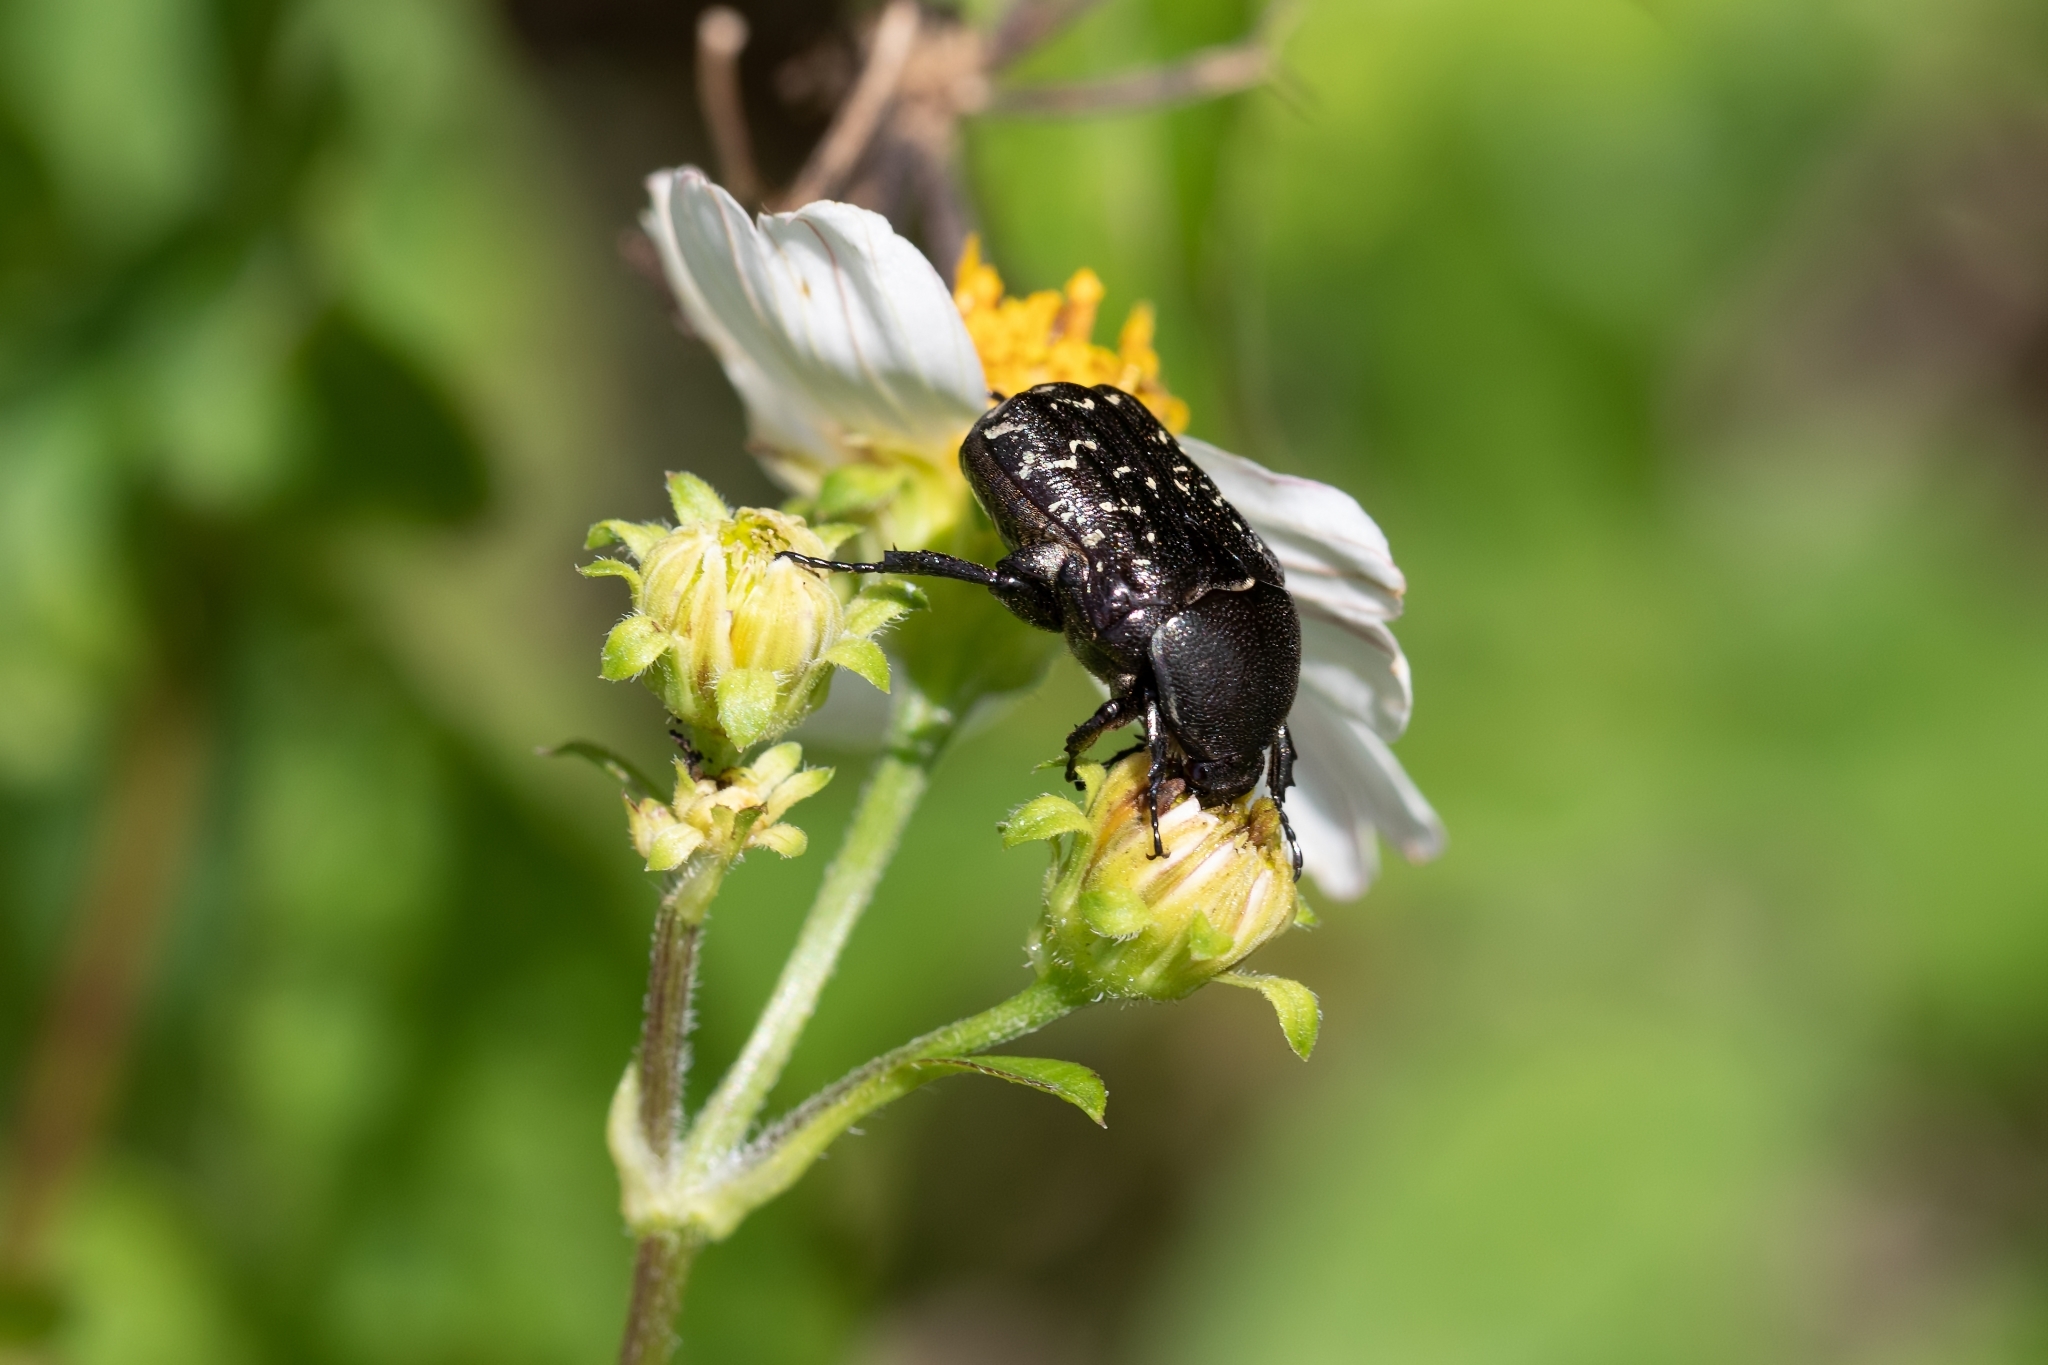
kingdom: Animalia
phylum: Arthropoda
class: Insecta
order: Coleoptera
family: Scarabaeidae
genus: Euphoria
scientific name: Euphoria sepulcralis
